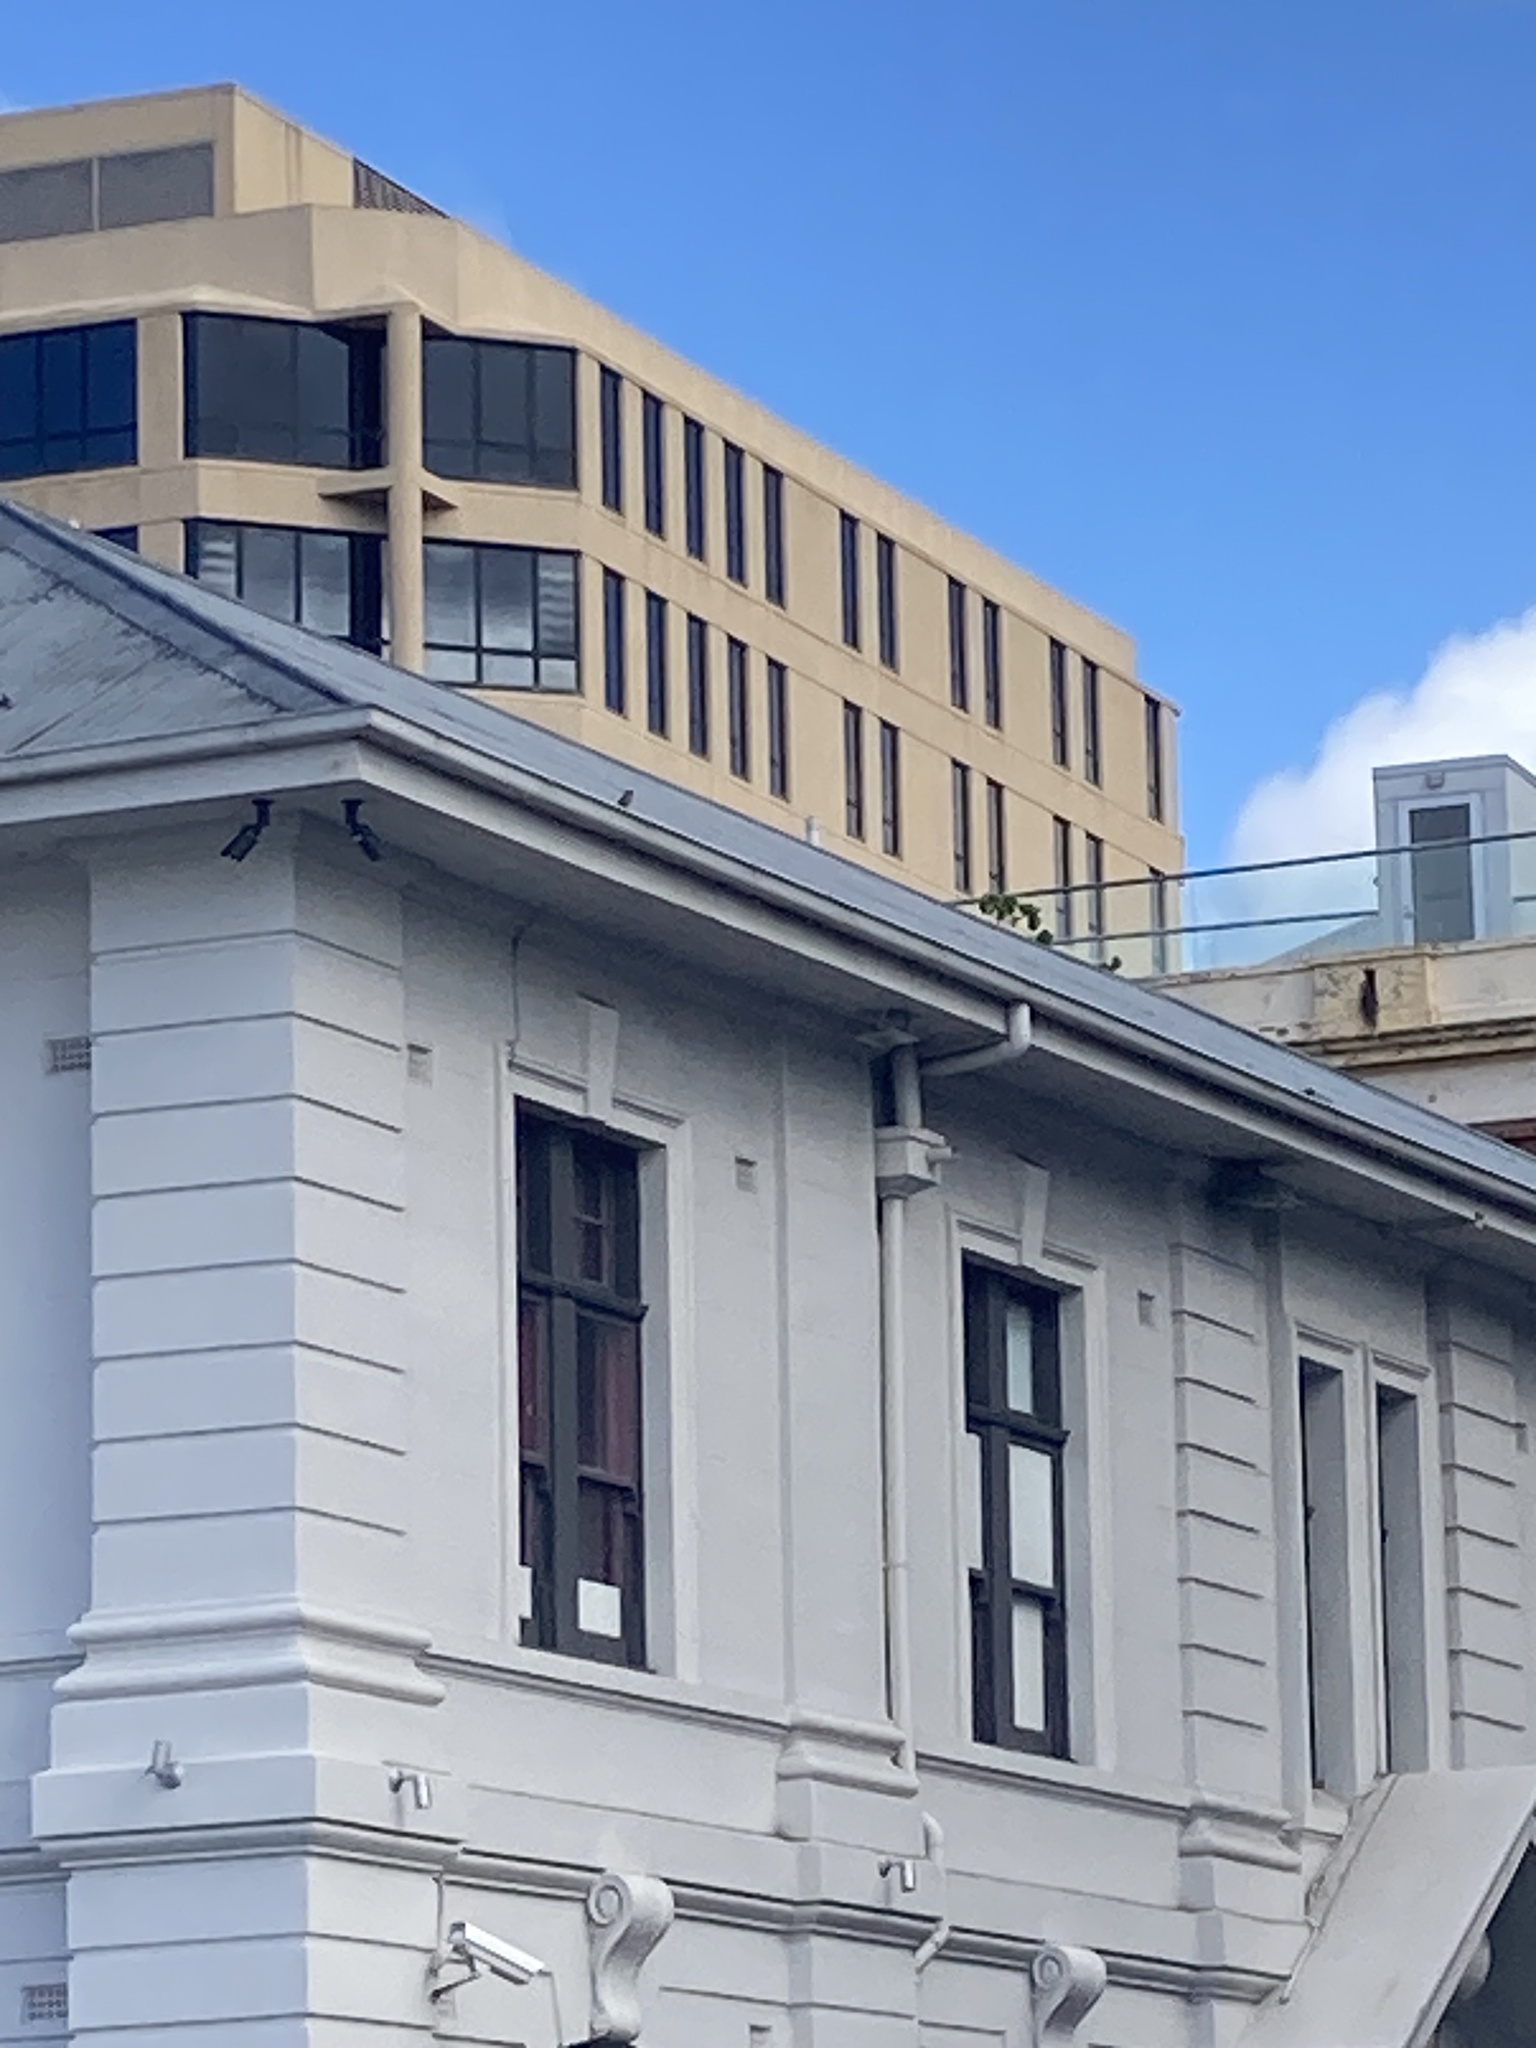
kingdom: Animalia
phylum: Chordata
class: Aves
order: Passeriformes
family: Passeridae
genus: Passer
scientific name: Passer domesticus
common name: House sparrow
